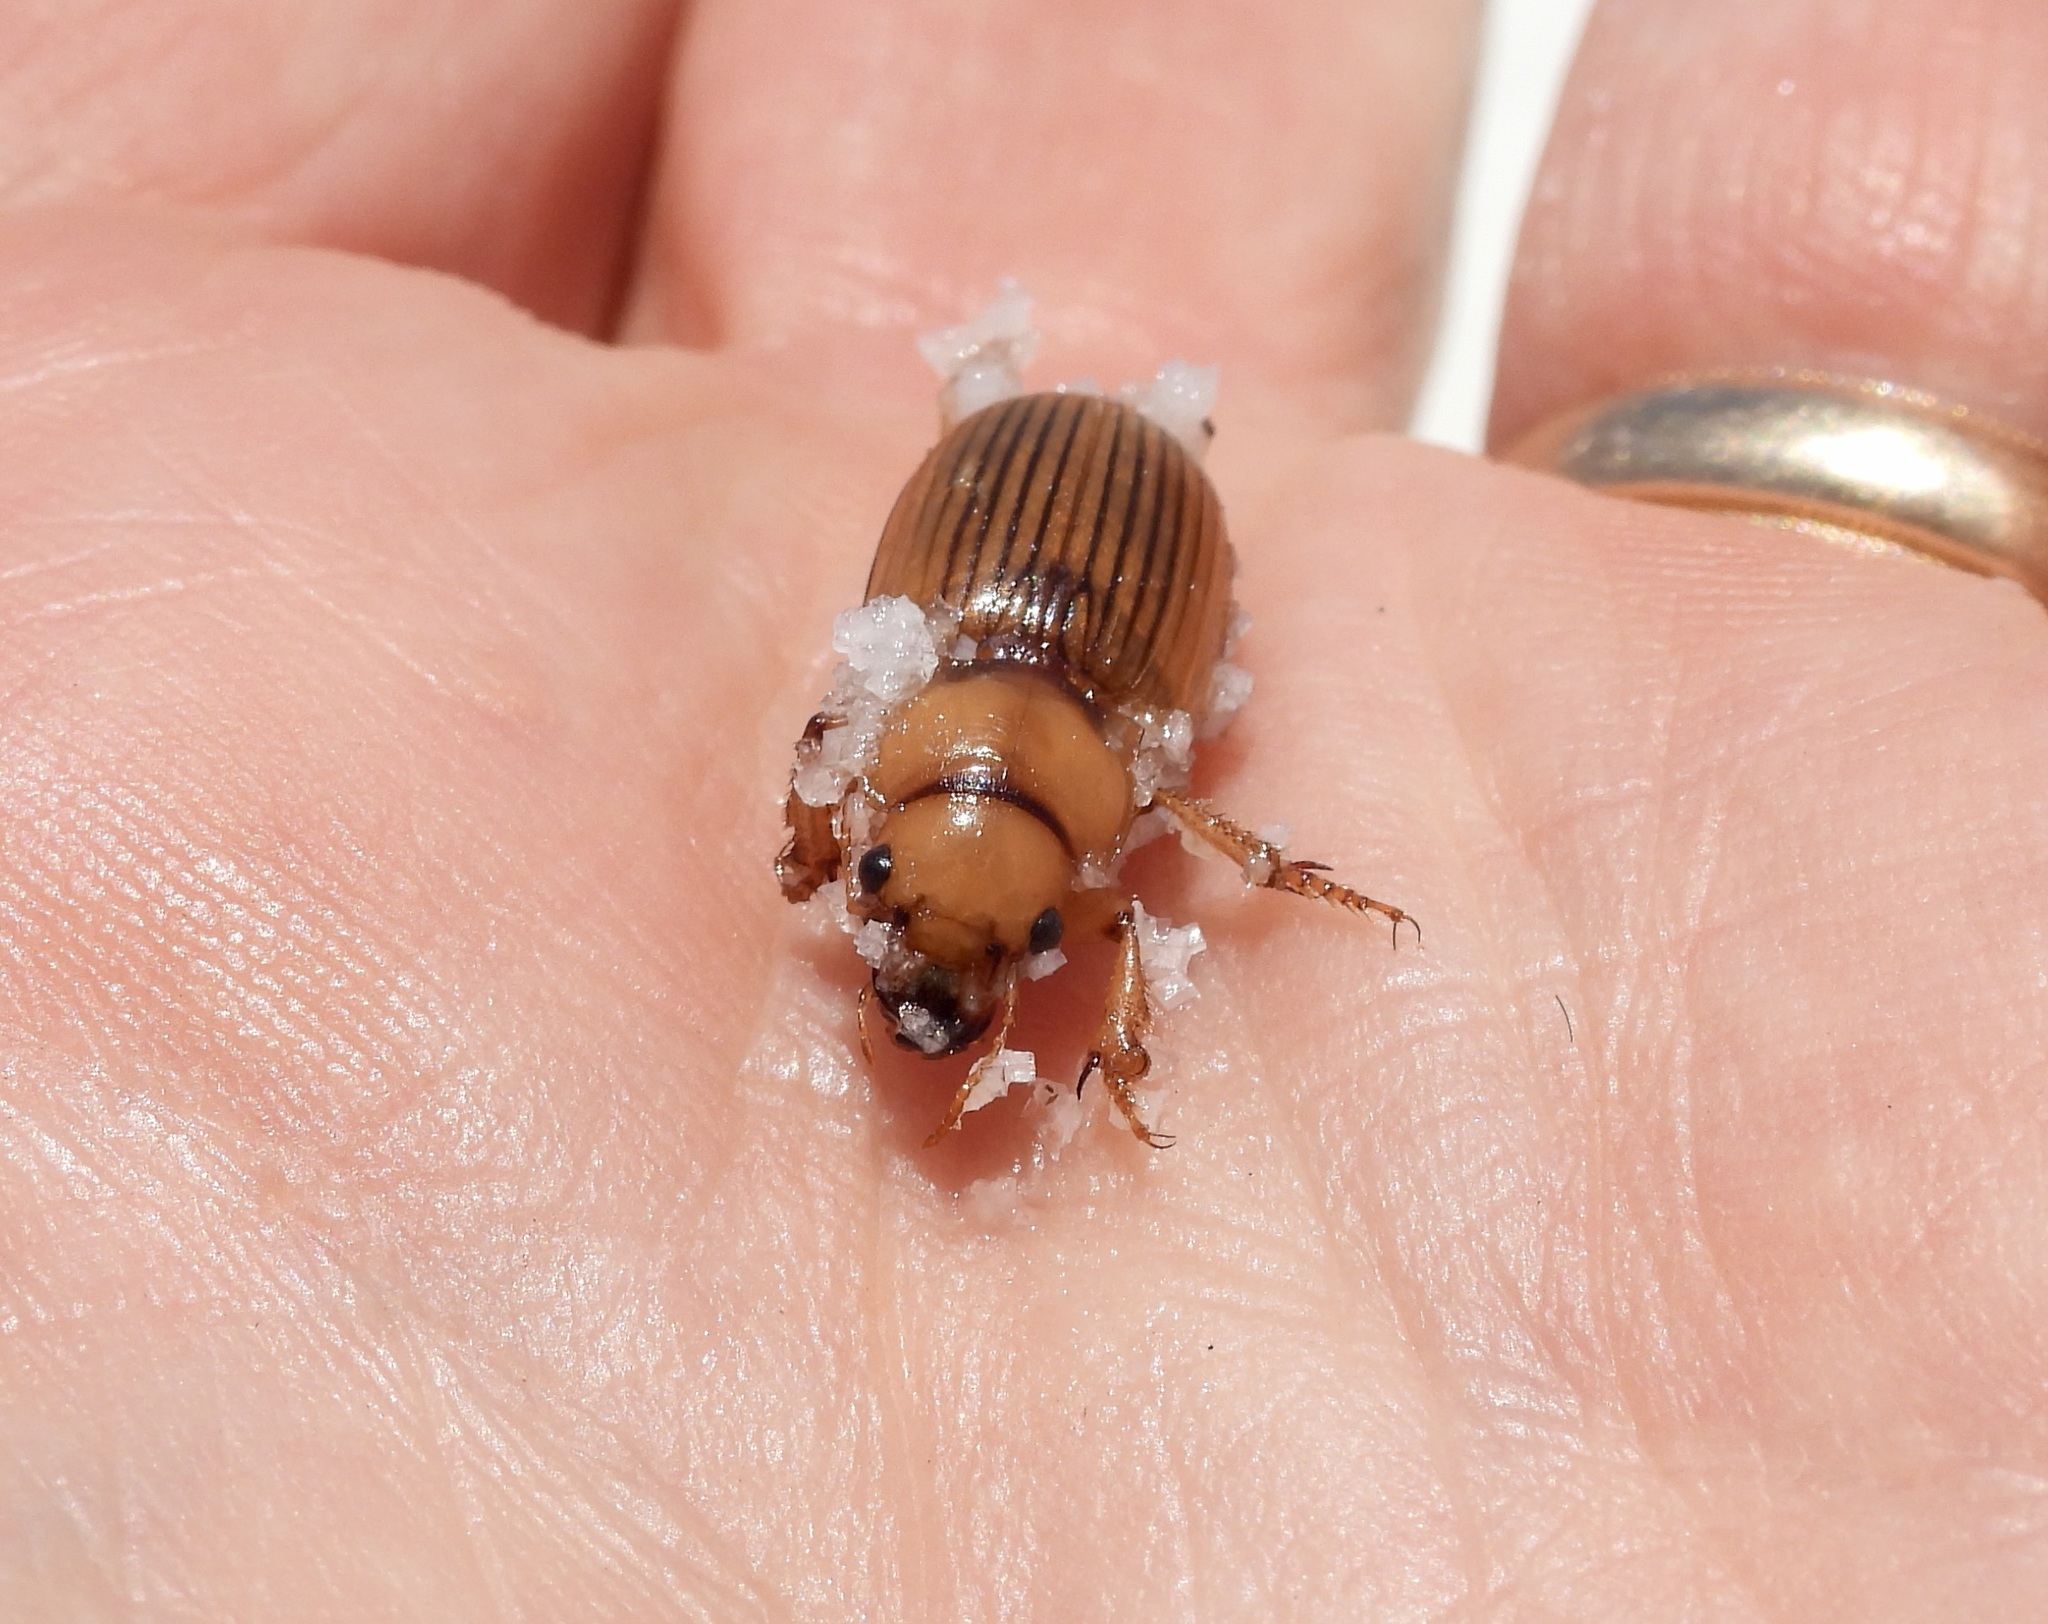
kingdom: Animalia
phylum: Arthropoda
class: Insecta
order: Coleoptera
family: Carabidae
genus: Geopinus
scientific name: Geopinus incrassatus
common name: Homely geopinus
